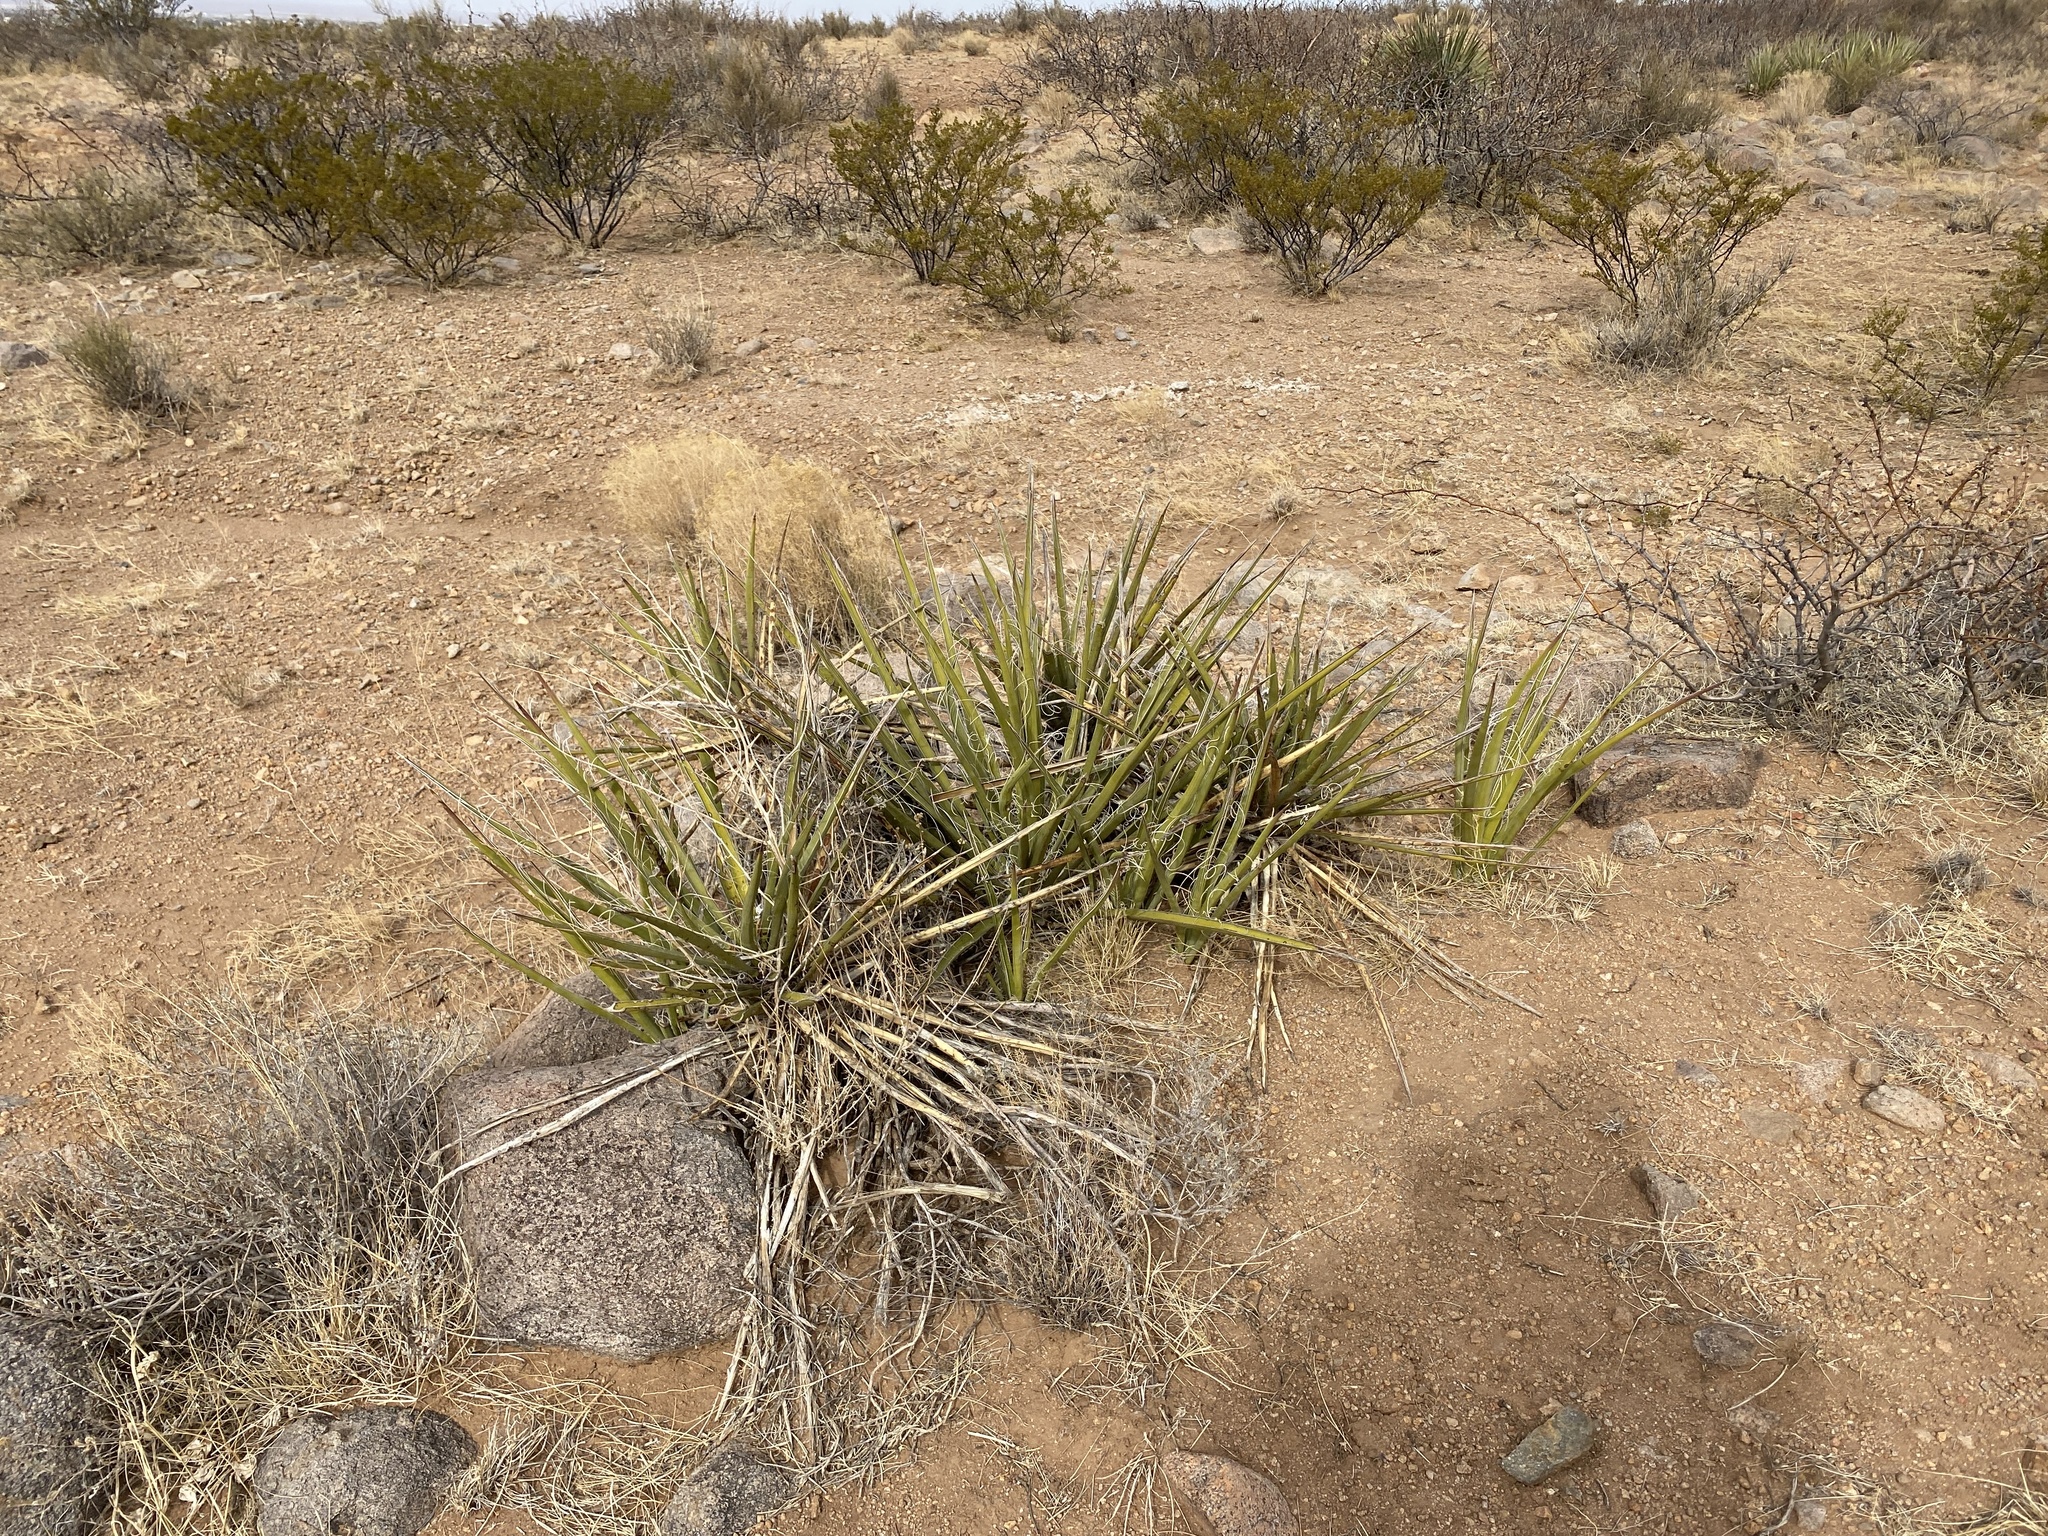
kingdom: Plantae
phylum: Tracheophyta
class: Liliopsida
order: Asparagales
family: Asparagaceae
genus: Yucca
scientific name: Yucca baccata
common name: Banana yucca
